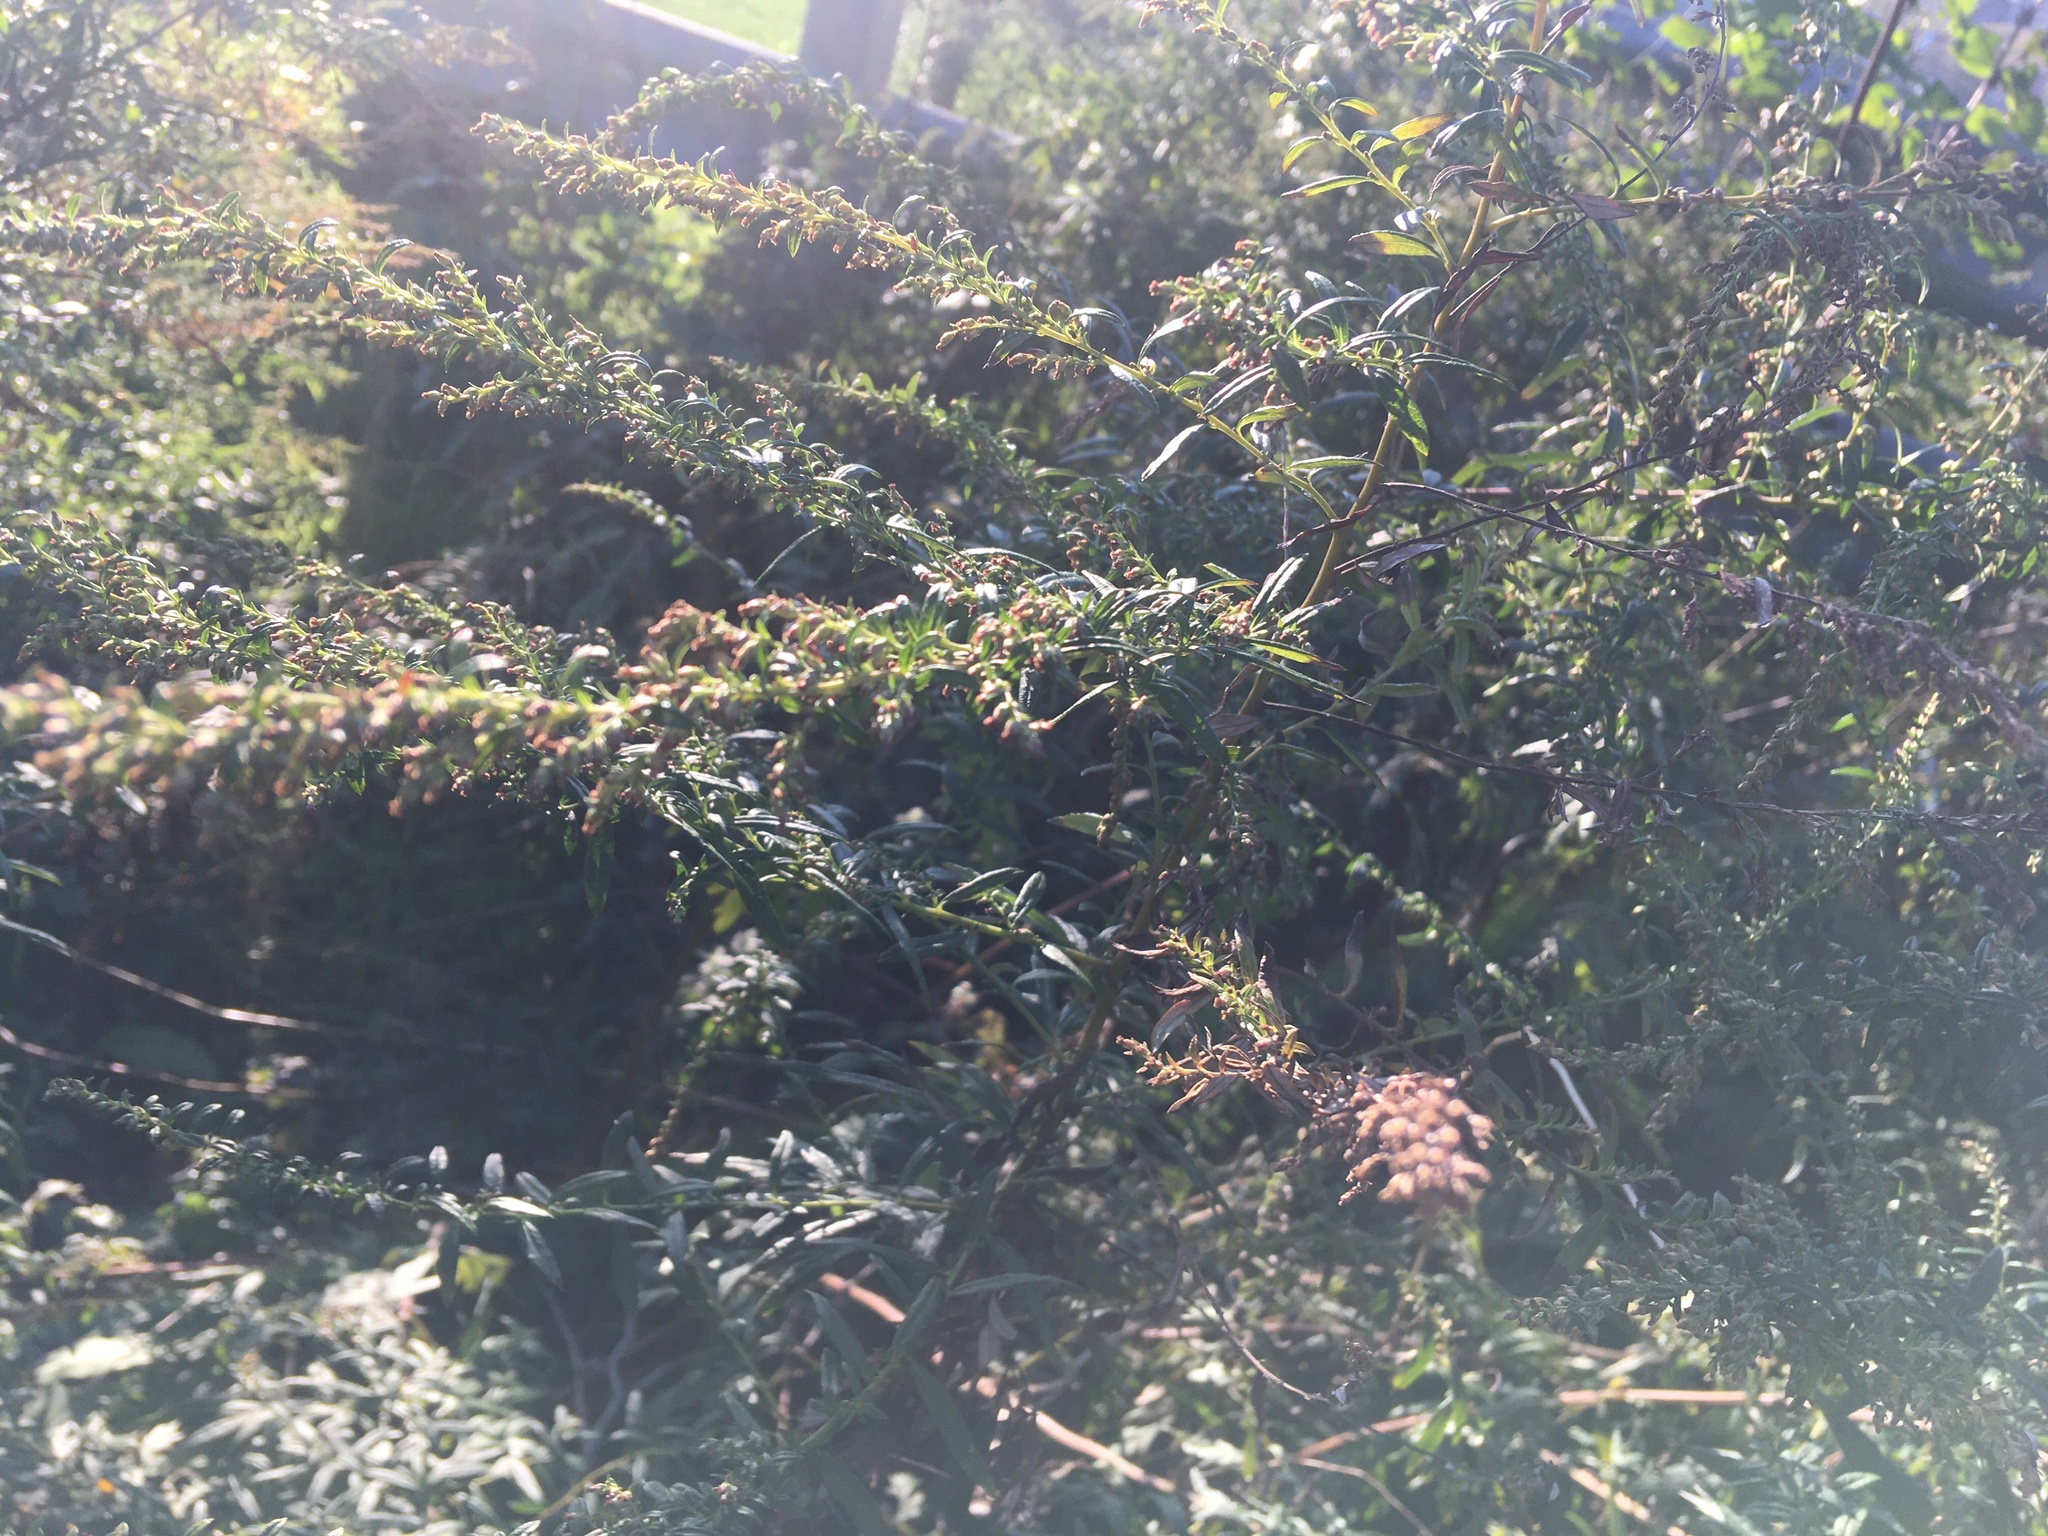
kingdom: Plantae
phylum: Tracheophyta
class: Magnoliopsida
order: Asterales
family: Asteraceae
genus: Artemisia
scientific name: Artemisia vulgaris
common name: Mugwort
